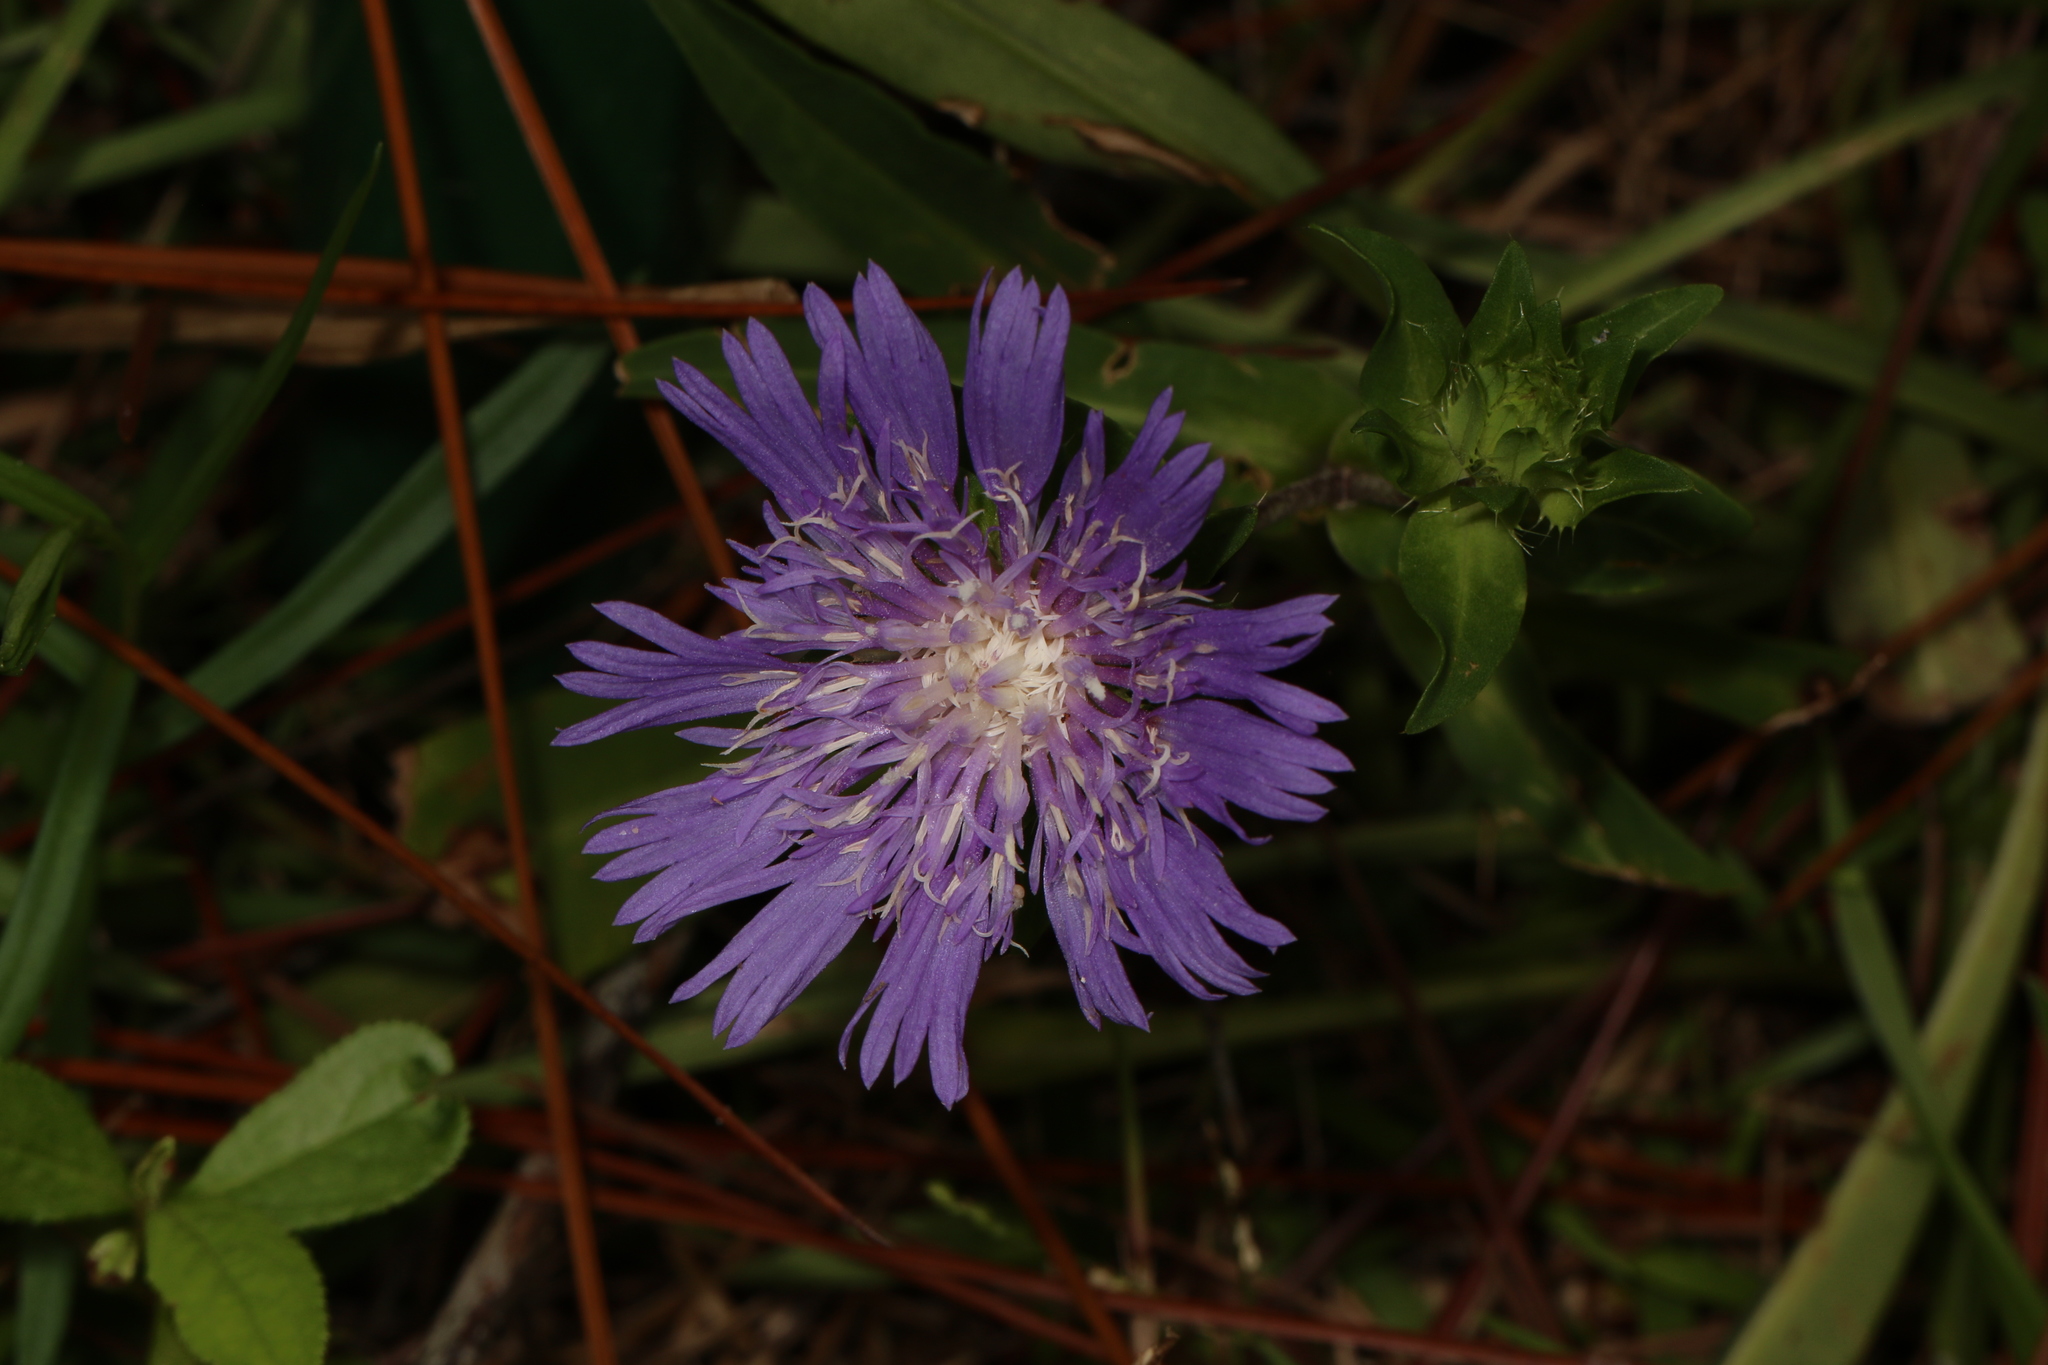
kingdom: Plantae
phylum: Tracheophyta
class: Magnoliopsida
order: Asterales
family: Asteraceae
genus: Stokesia
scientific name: Stokesia laevis
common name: Stokes'-aster
